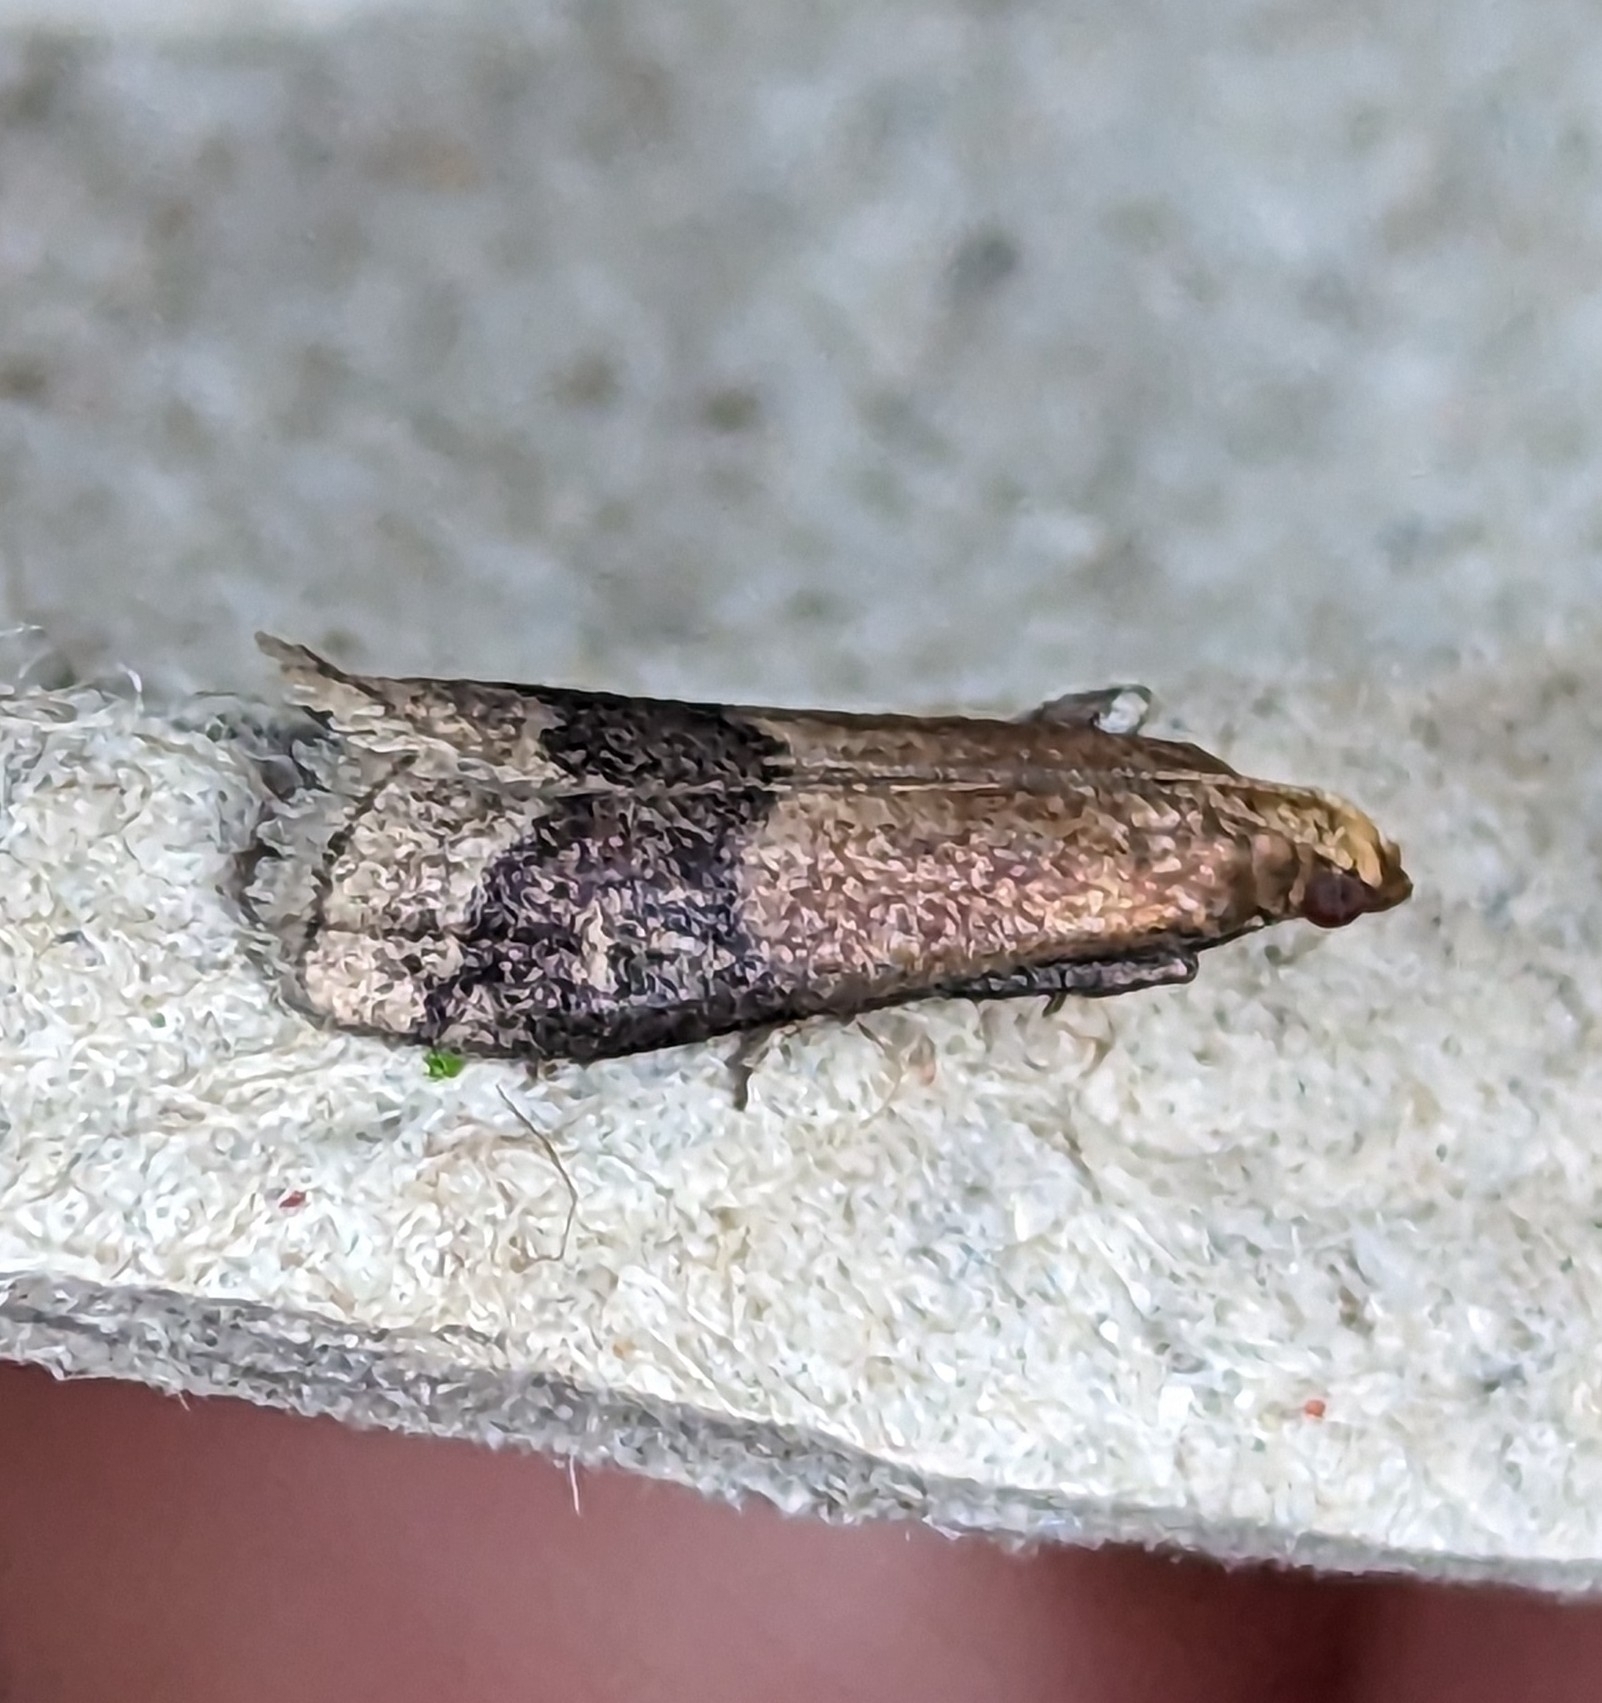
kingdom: Animalia
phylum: Arthropoda
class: Insecta
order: Lepidoptera
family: Pyralidae
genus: Eulogia
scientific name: Eulogia ochrifrontella
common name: Broad-banded eulogia moth
